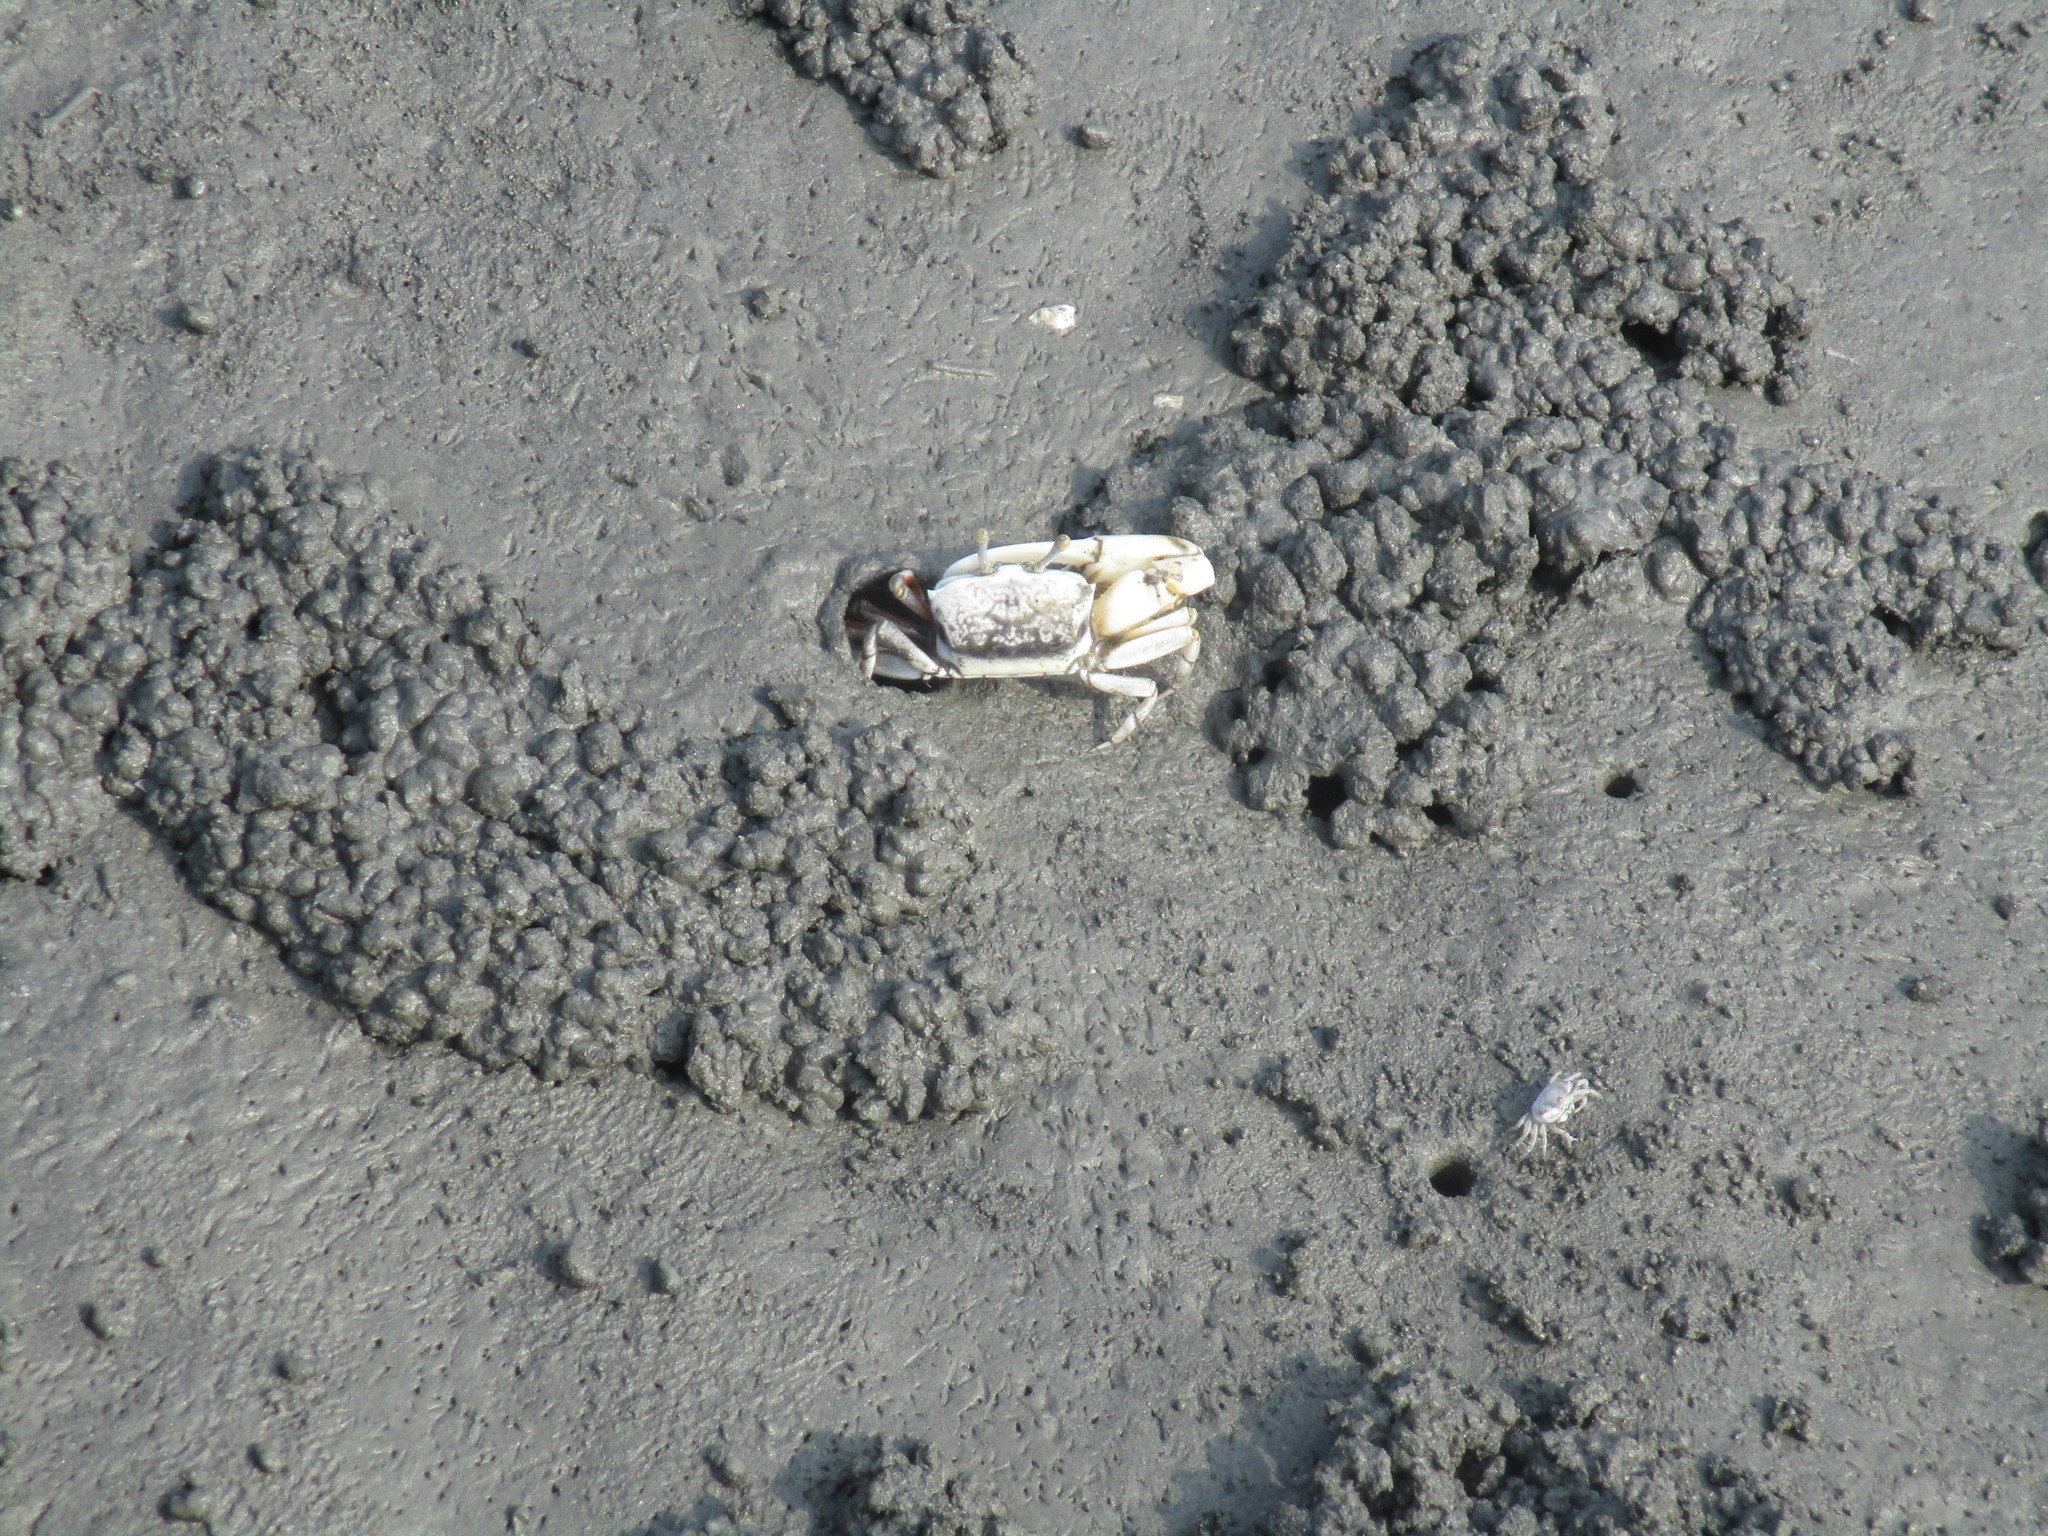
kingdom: Animalia
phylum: Arthropoda
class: Malacostraca
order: Decapoda
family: Ocypodidae
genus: Austruca
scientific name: Austruca lactea
